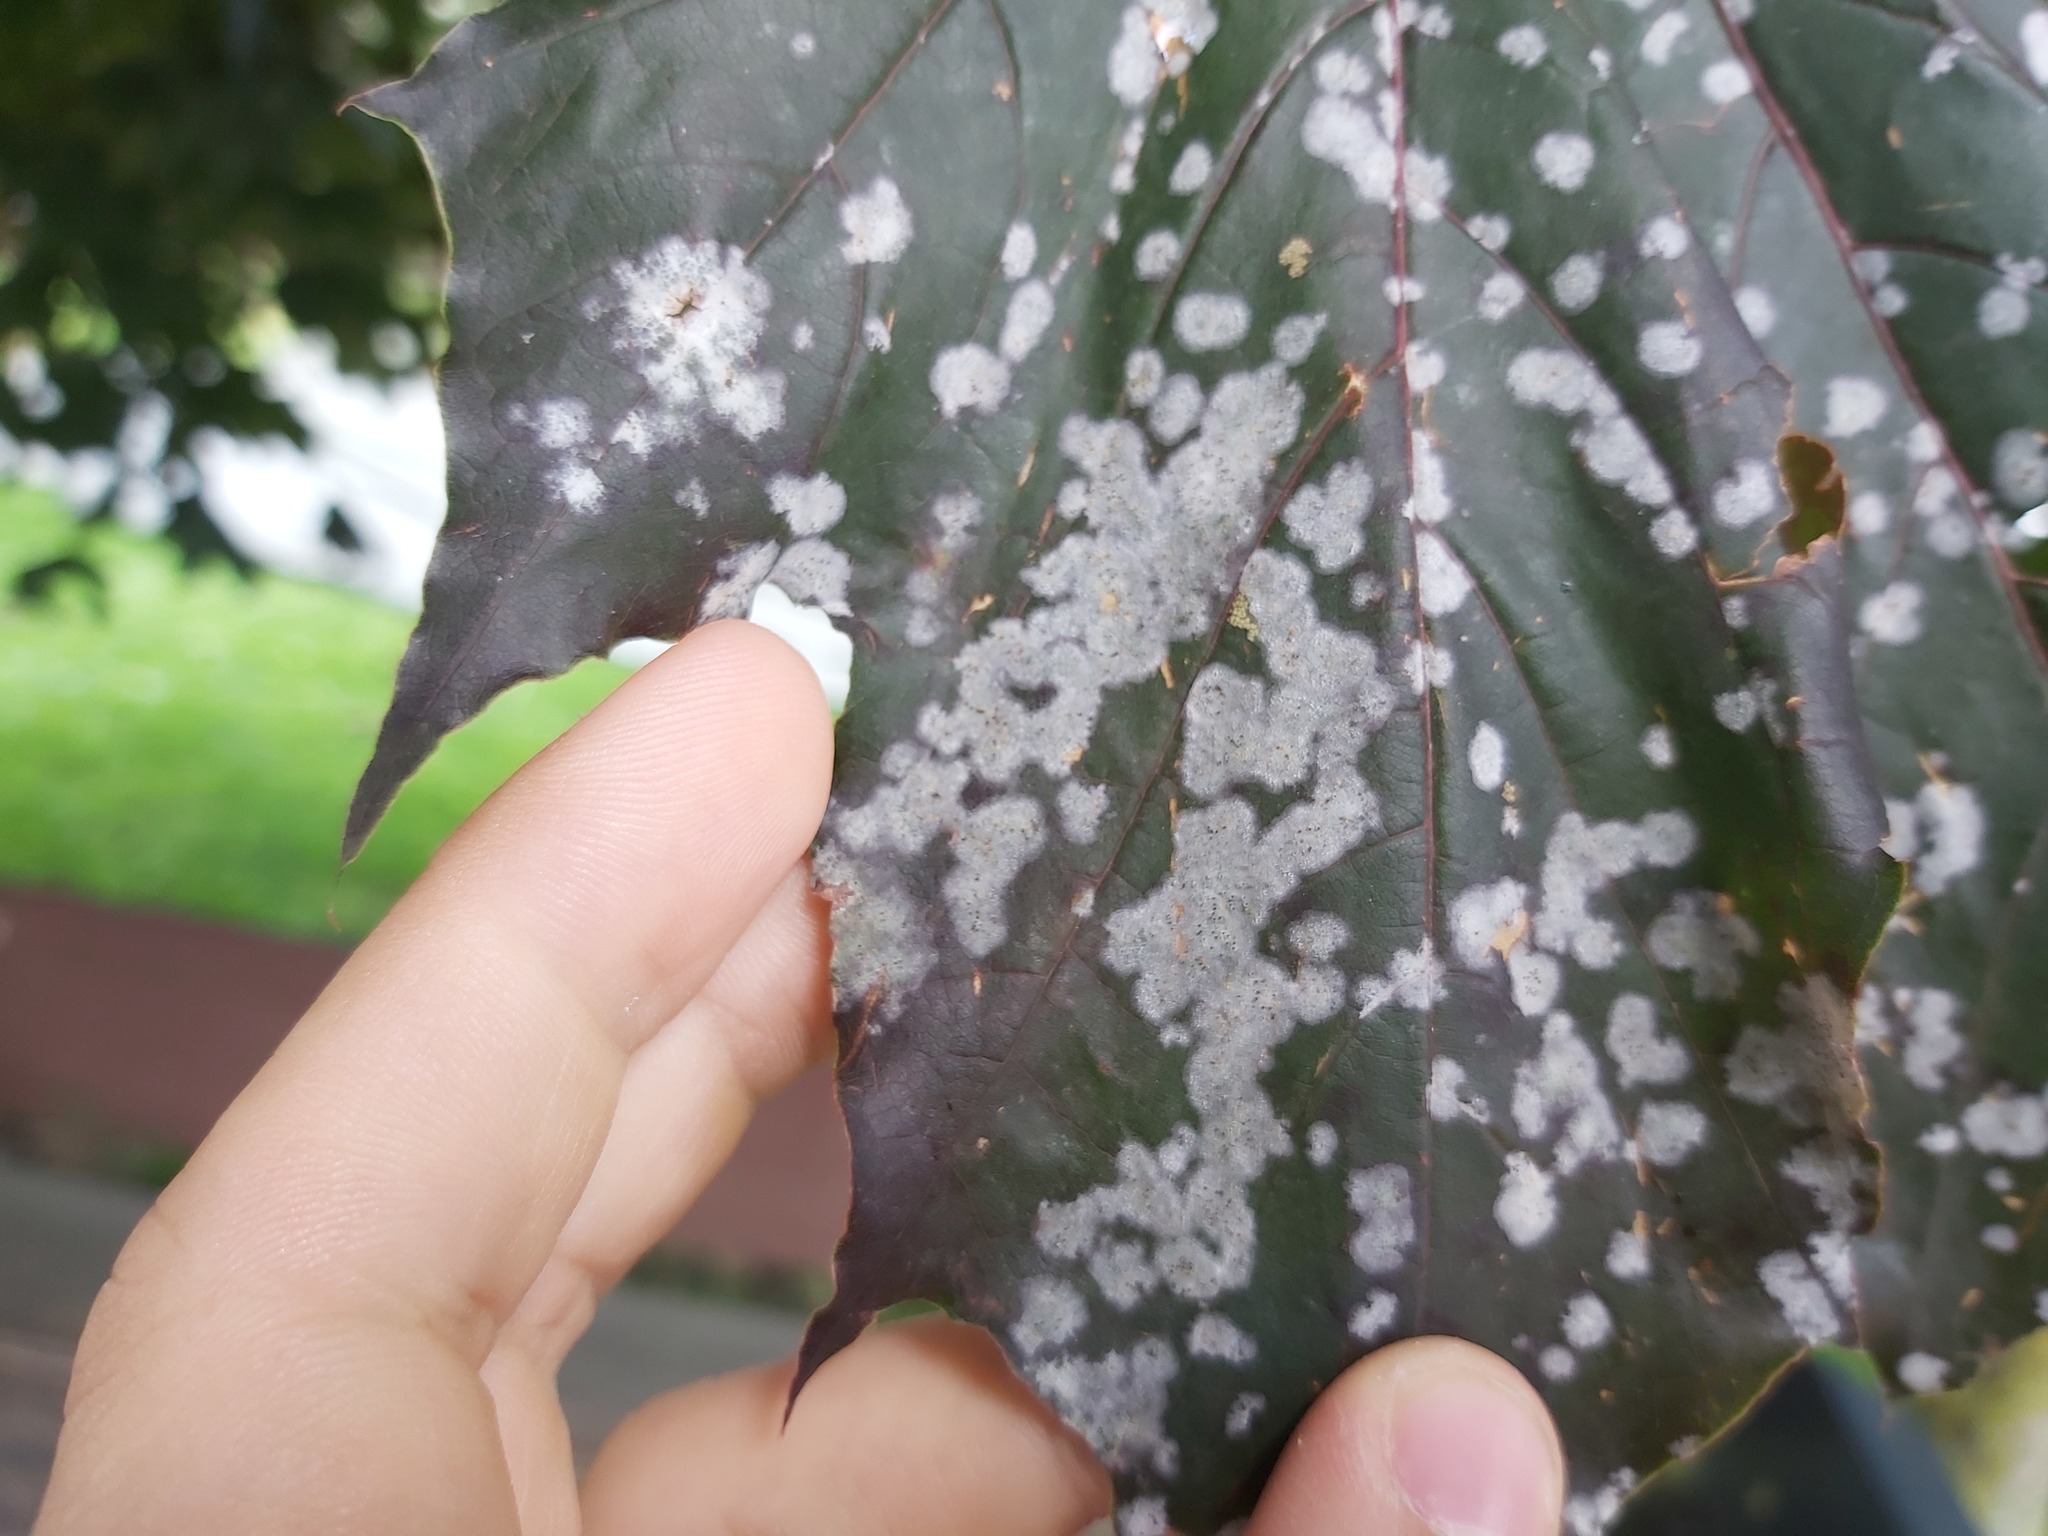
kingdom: Fungi
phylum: Ascomycota
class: Leotiomycetes
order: Helotiales
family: Erysiphaceae
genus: Sawadaea
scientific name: Sawadaea tulasnei
